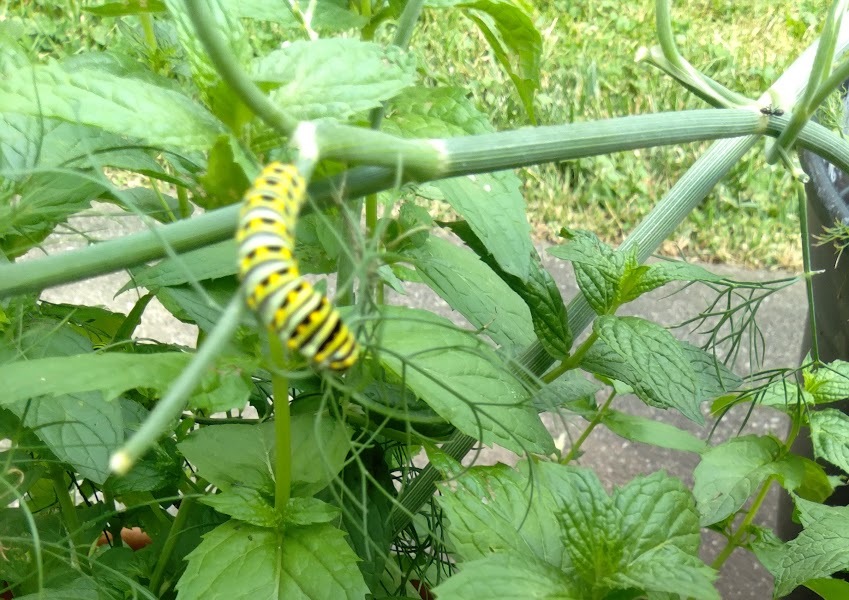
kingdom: Animalia
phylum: Arthropoda
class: Insecta
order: Lepidoptera
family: Papilionidae
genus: Papilio
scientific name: Papilio polyxenes
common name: Black swallowtail
